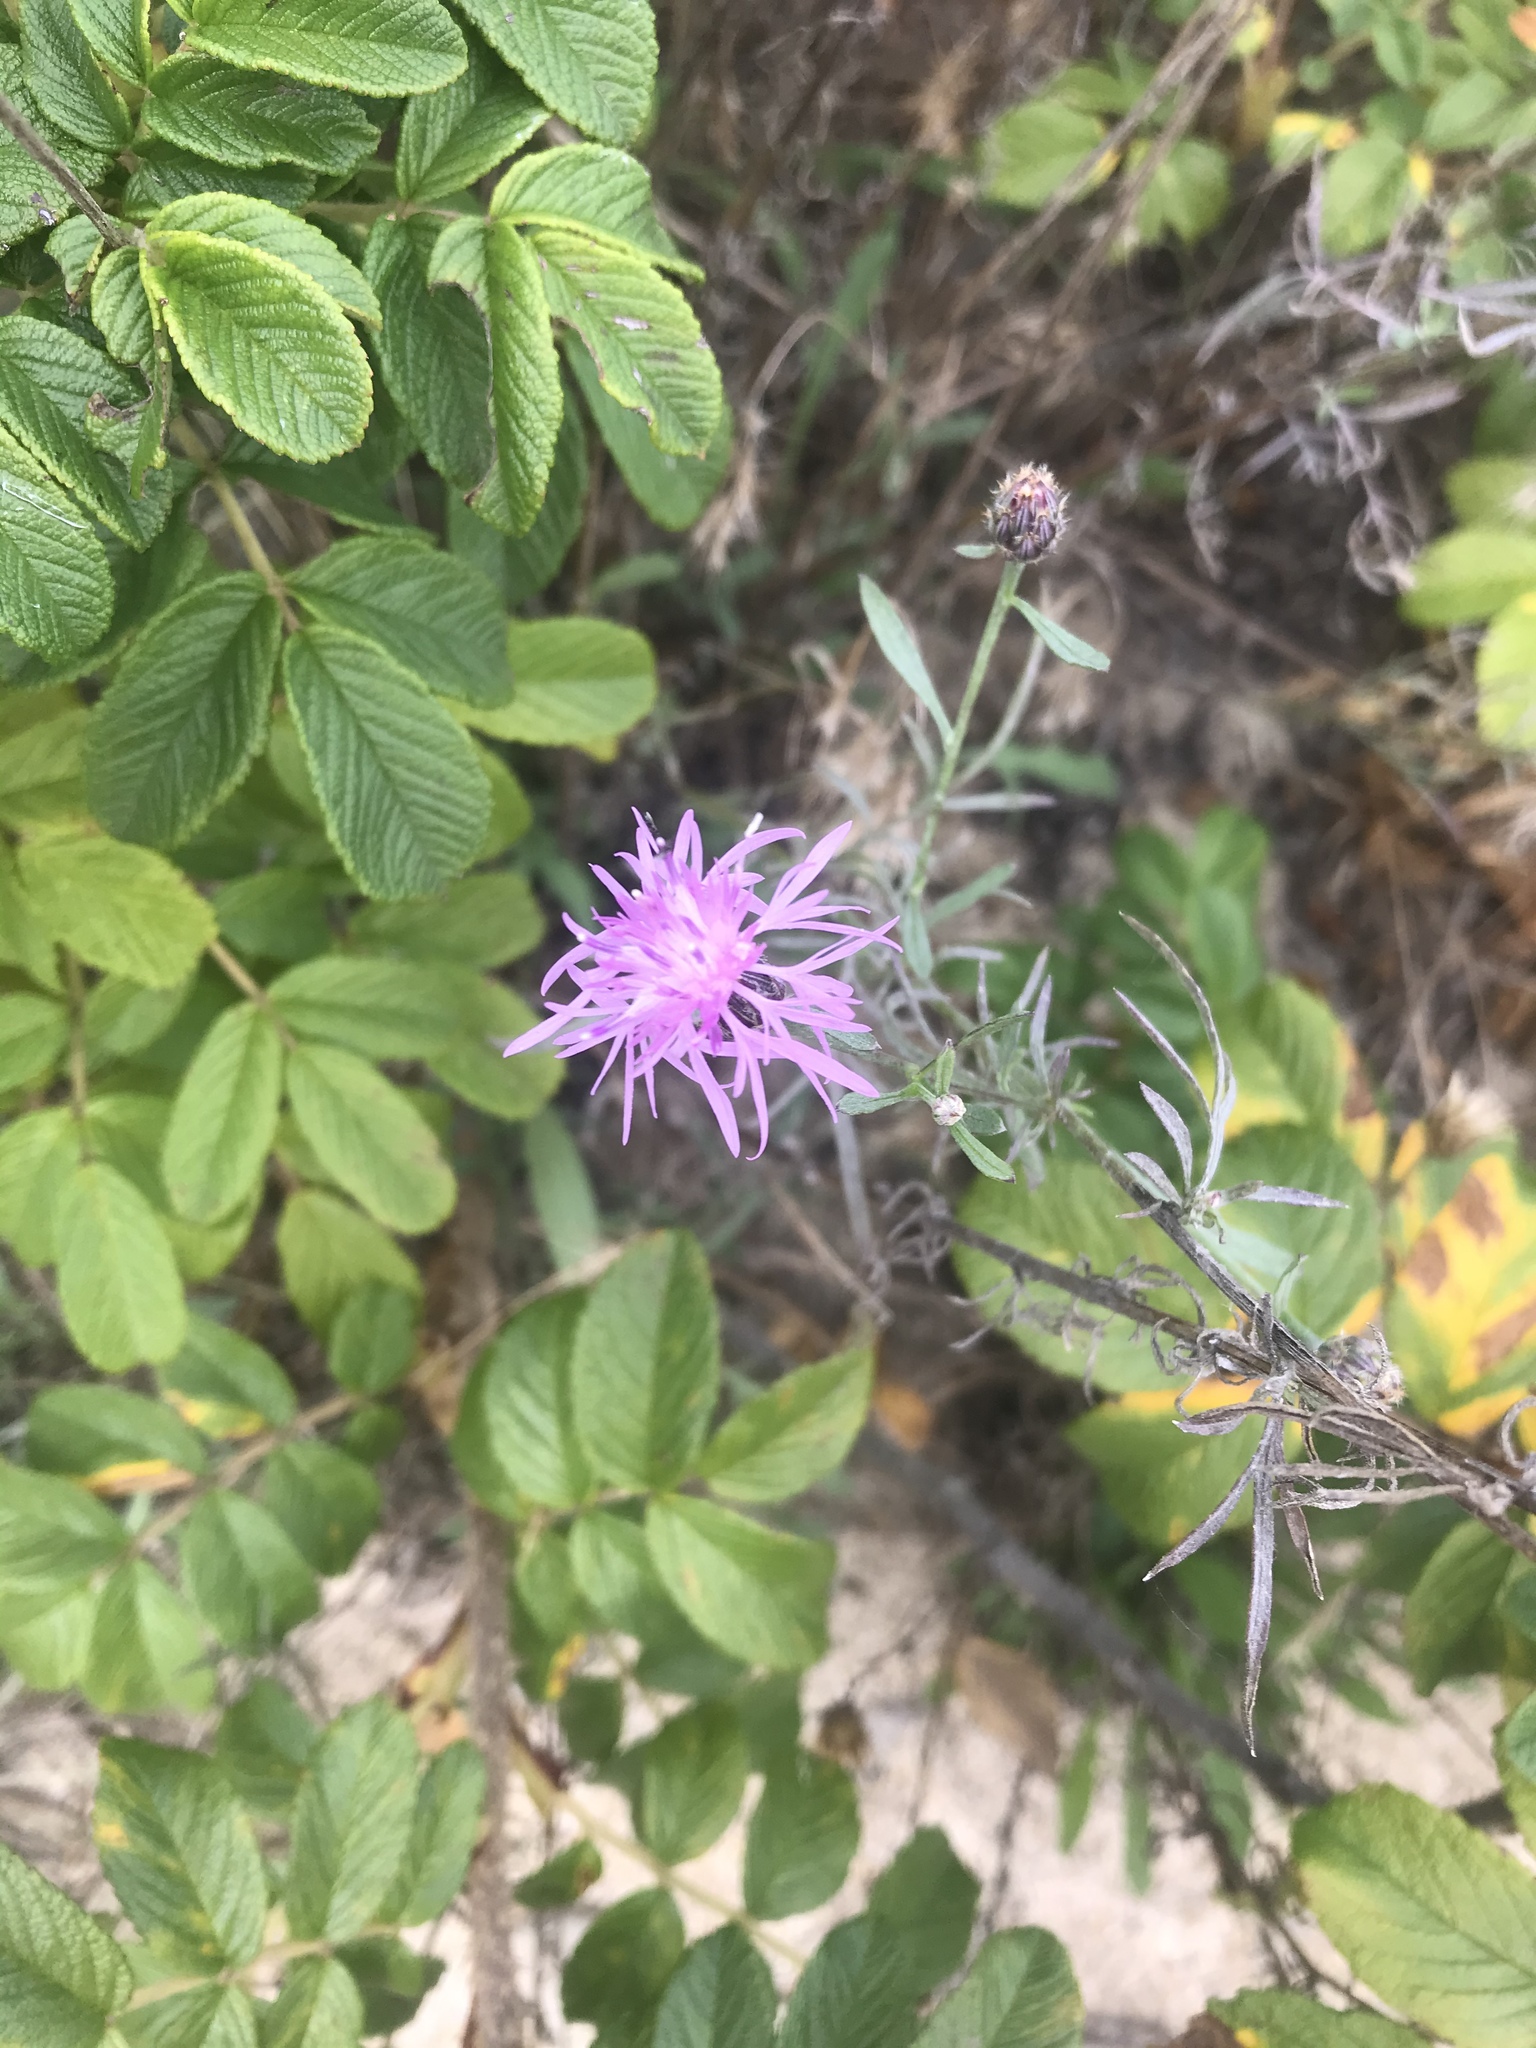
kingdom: Plantae
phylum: Tracheophyta
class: Magnoliopsida
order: Asterales
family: Asteraceae
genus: Centaurea
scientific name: Centaurea stoebe
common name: Spotted knapweed
